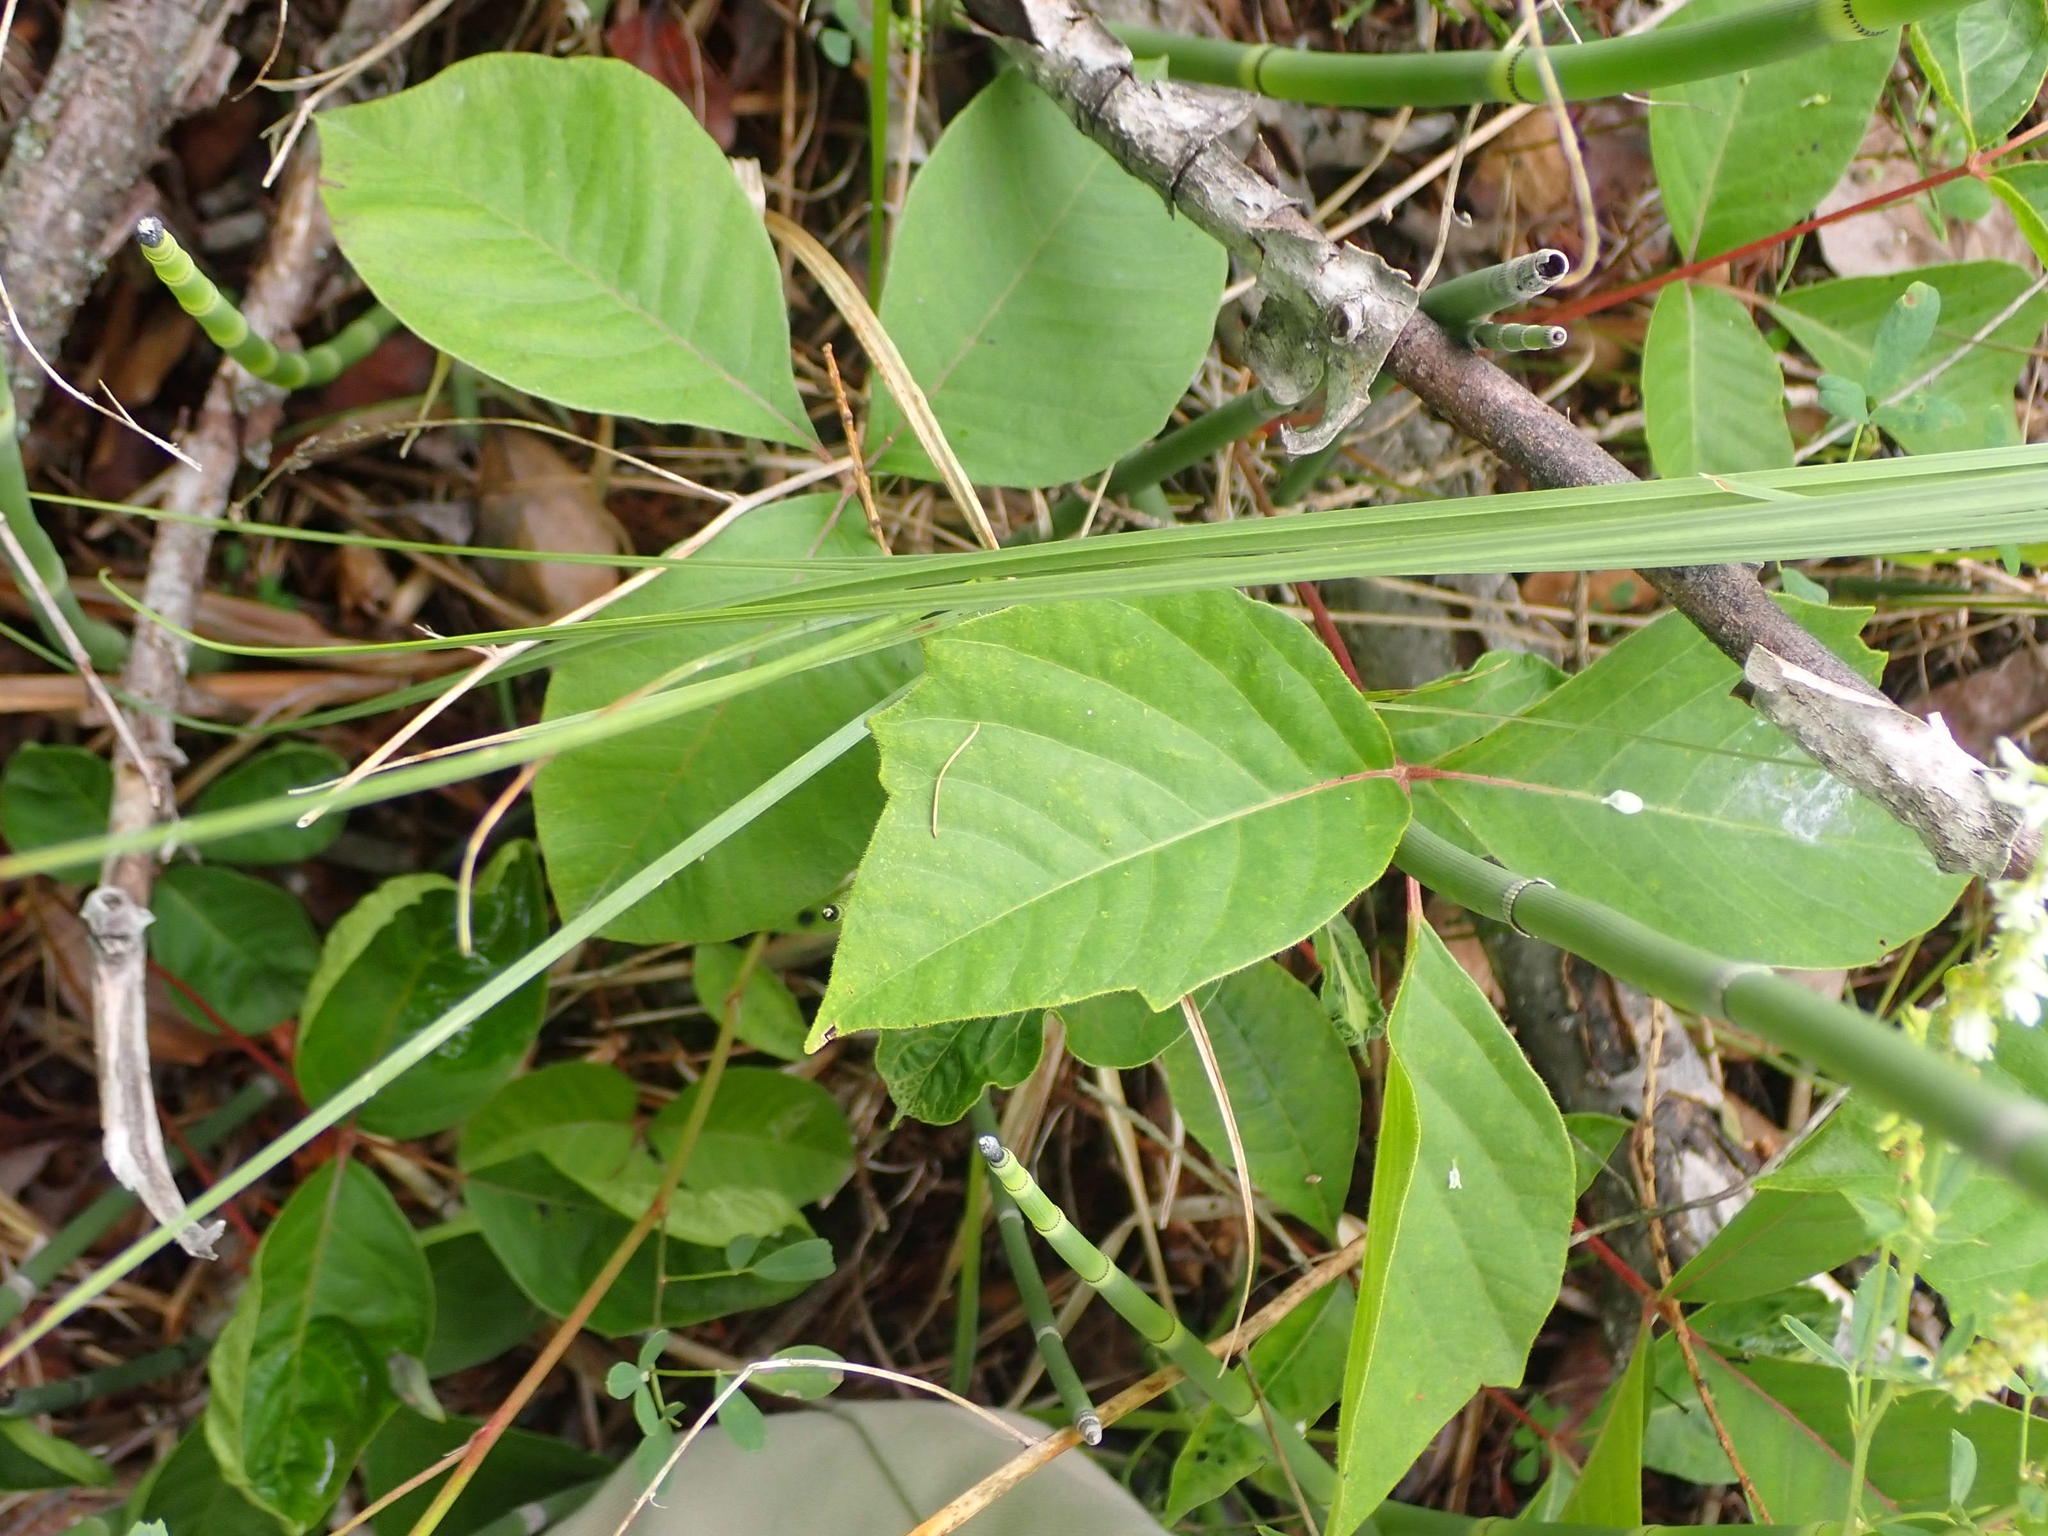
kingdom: Plantae
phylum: Tracheophyta
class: Magnoliopsida
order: Sapindales
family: Anacardiaceae
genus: Toxicodendron
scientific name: Toxicodendron rydbergii
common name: Rydberg's poison-ivy
